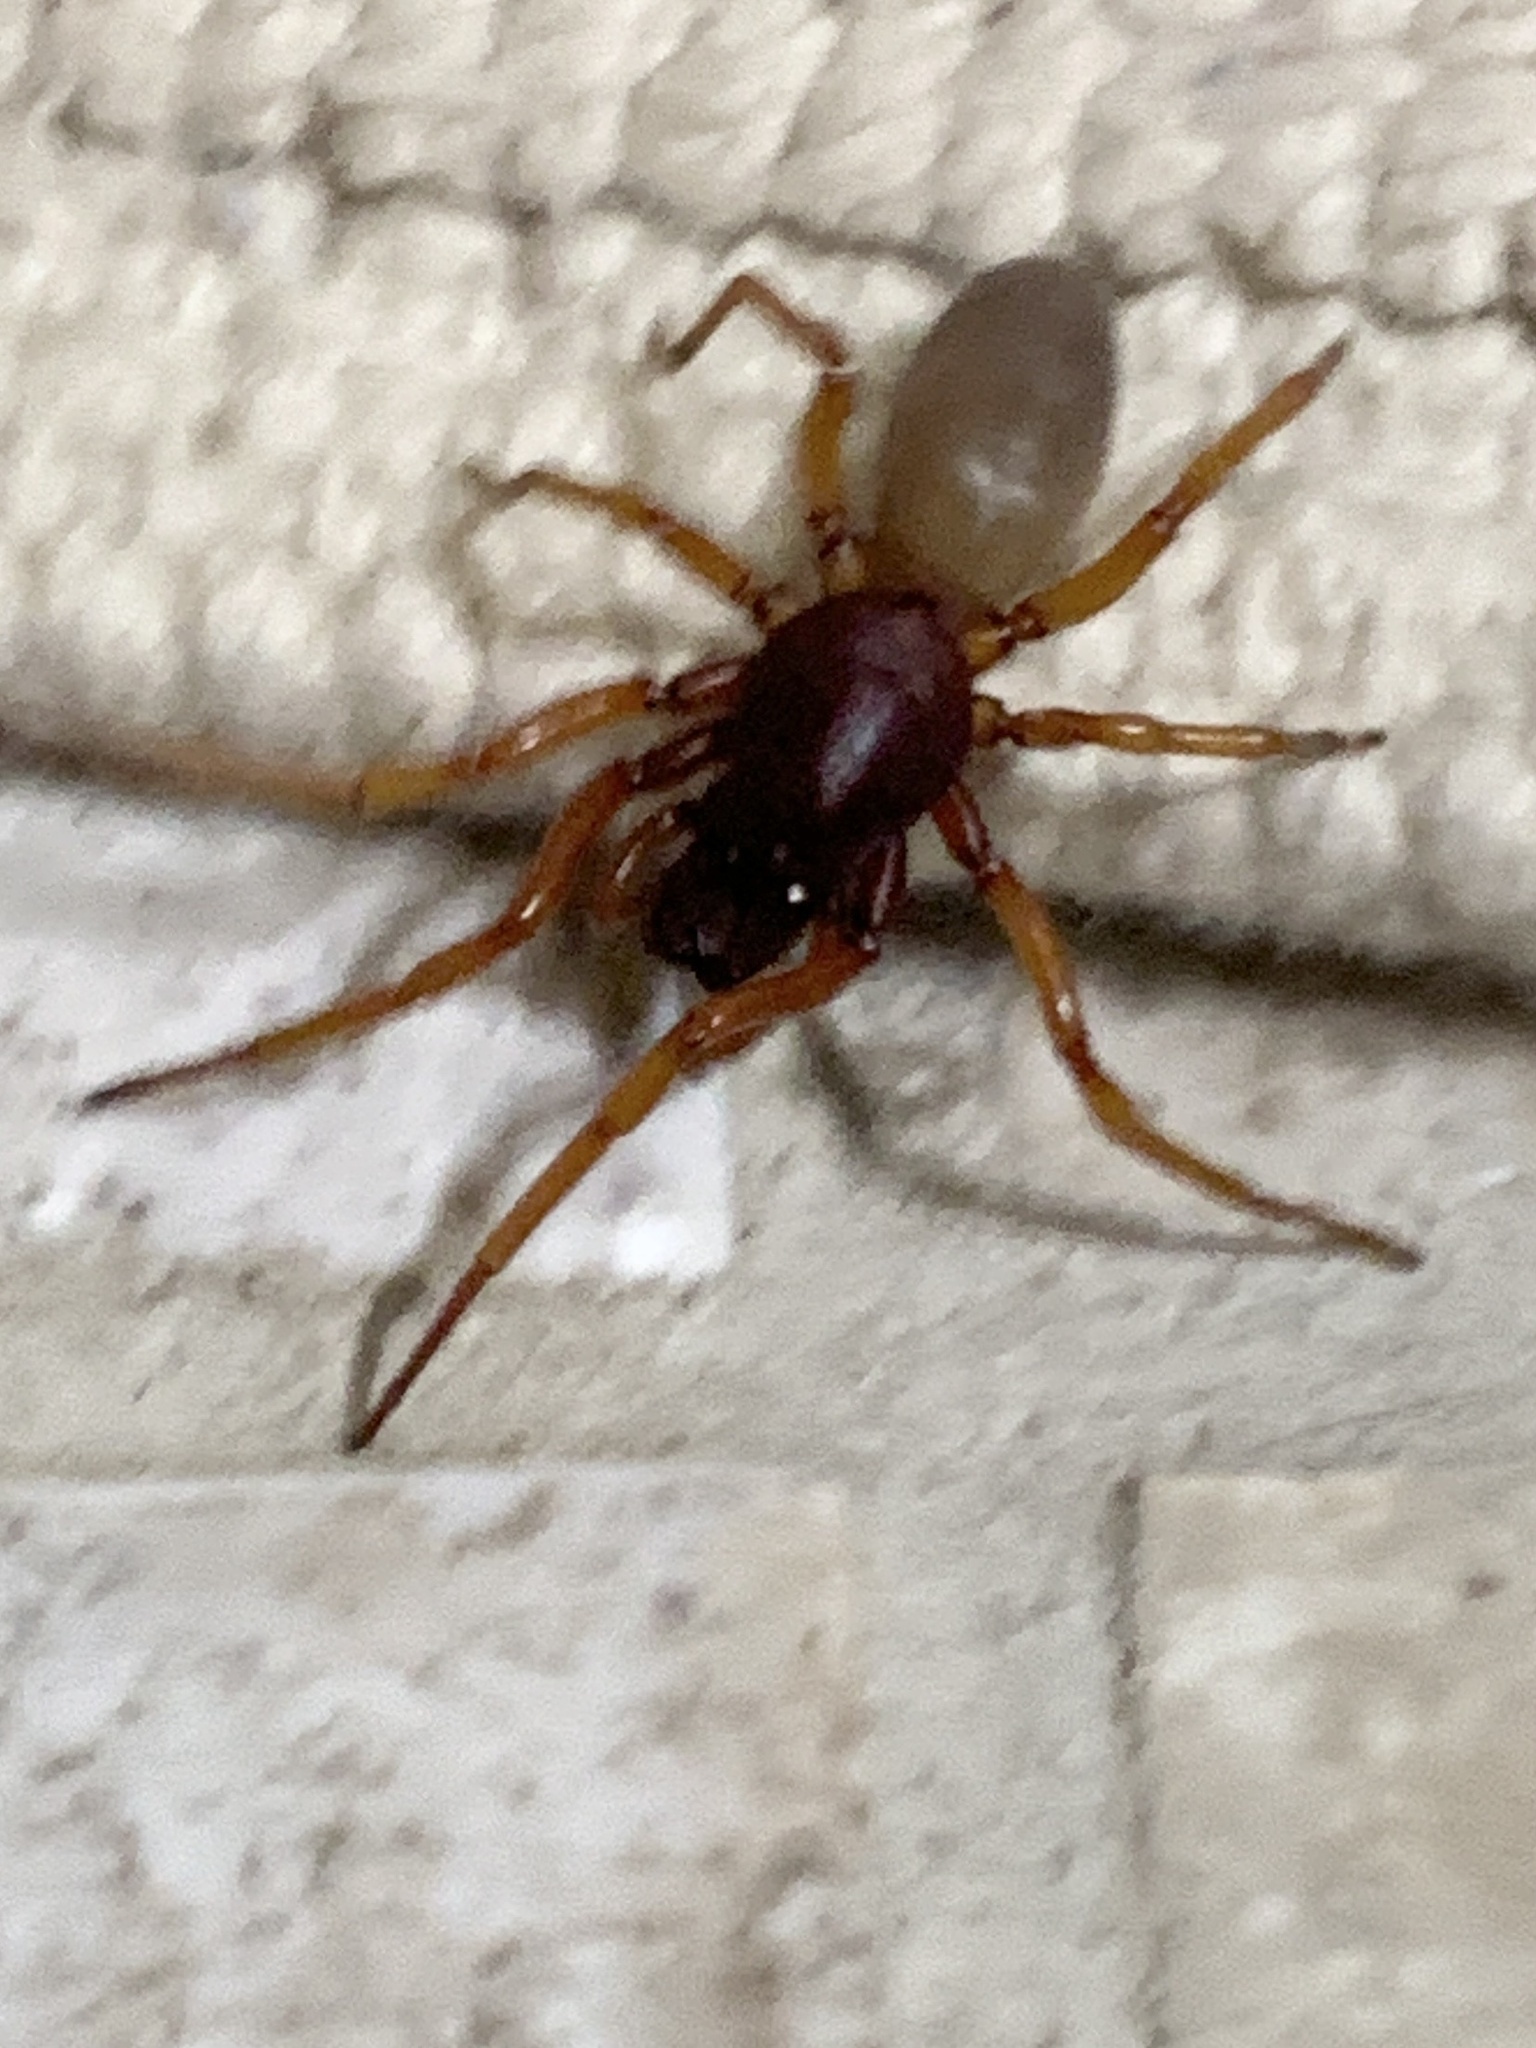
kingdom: Animalia
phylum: Arthropoda
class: Arachnida
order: Araneae
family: Dysderidae
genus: Dysdera
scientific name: Dysdera crocata
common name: Woodlouse spider
